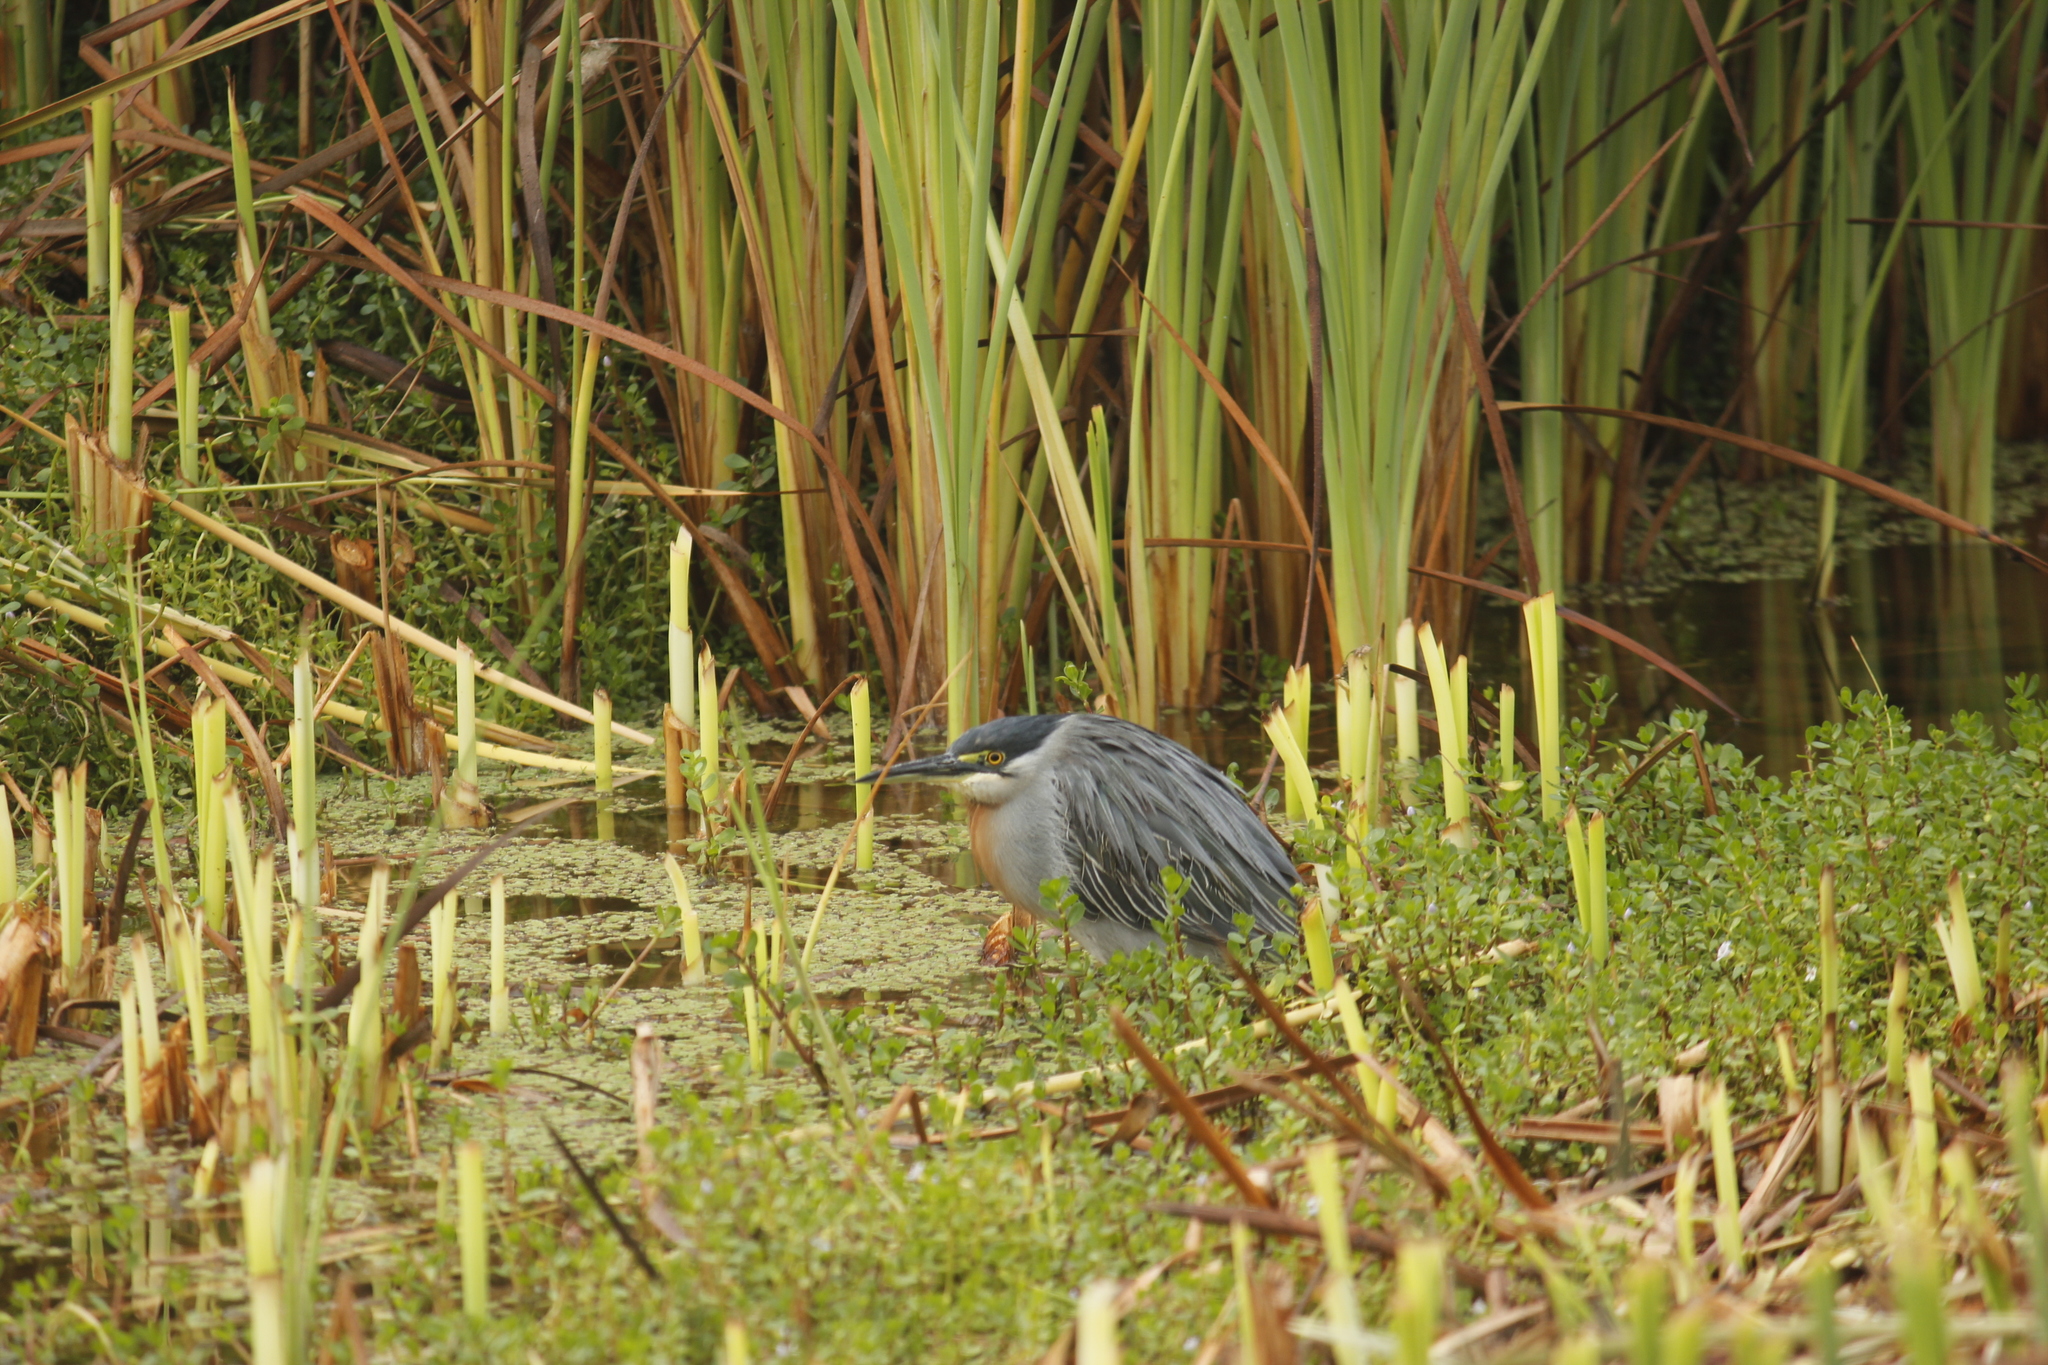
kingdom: Animalia
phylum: Chordata
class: Aves
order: Pelecaniformes
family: Ardeidae
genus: Butorides
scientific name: Butorides striata
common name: Striated heron
